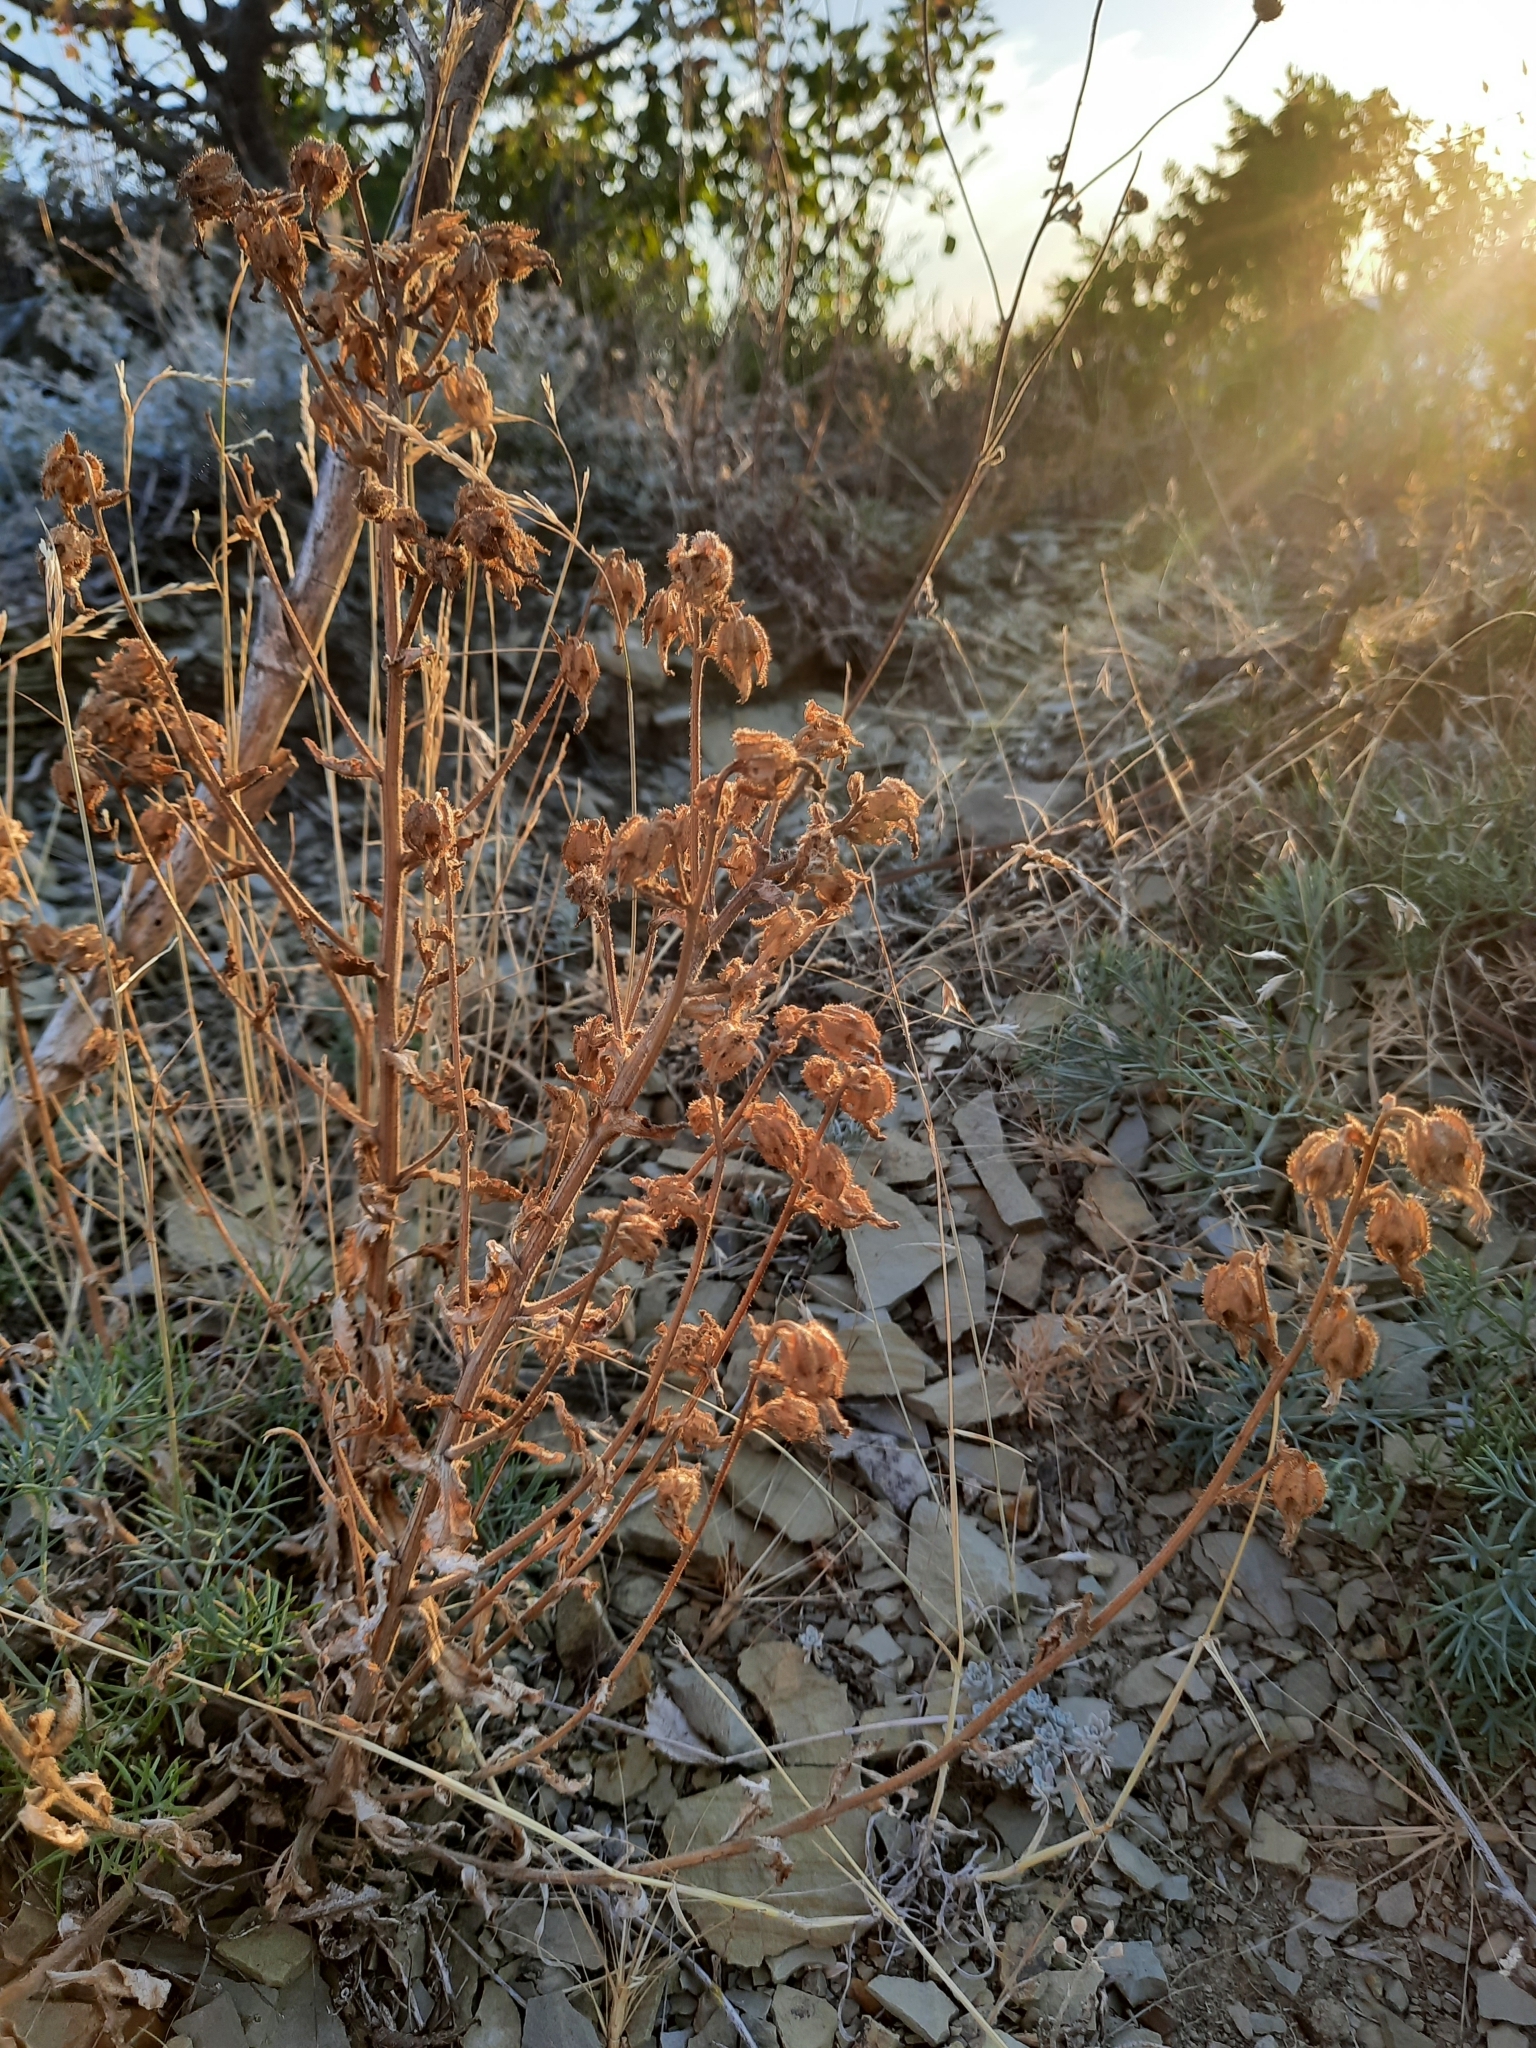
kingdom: Plantae
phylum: Tracheophyta
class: Magnoliopsida
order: Asterales
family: Campanulaceae
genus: Campanula
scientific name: Campanula komarovii
